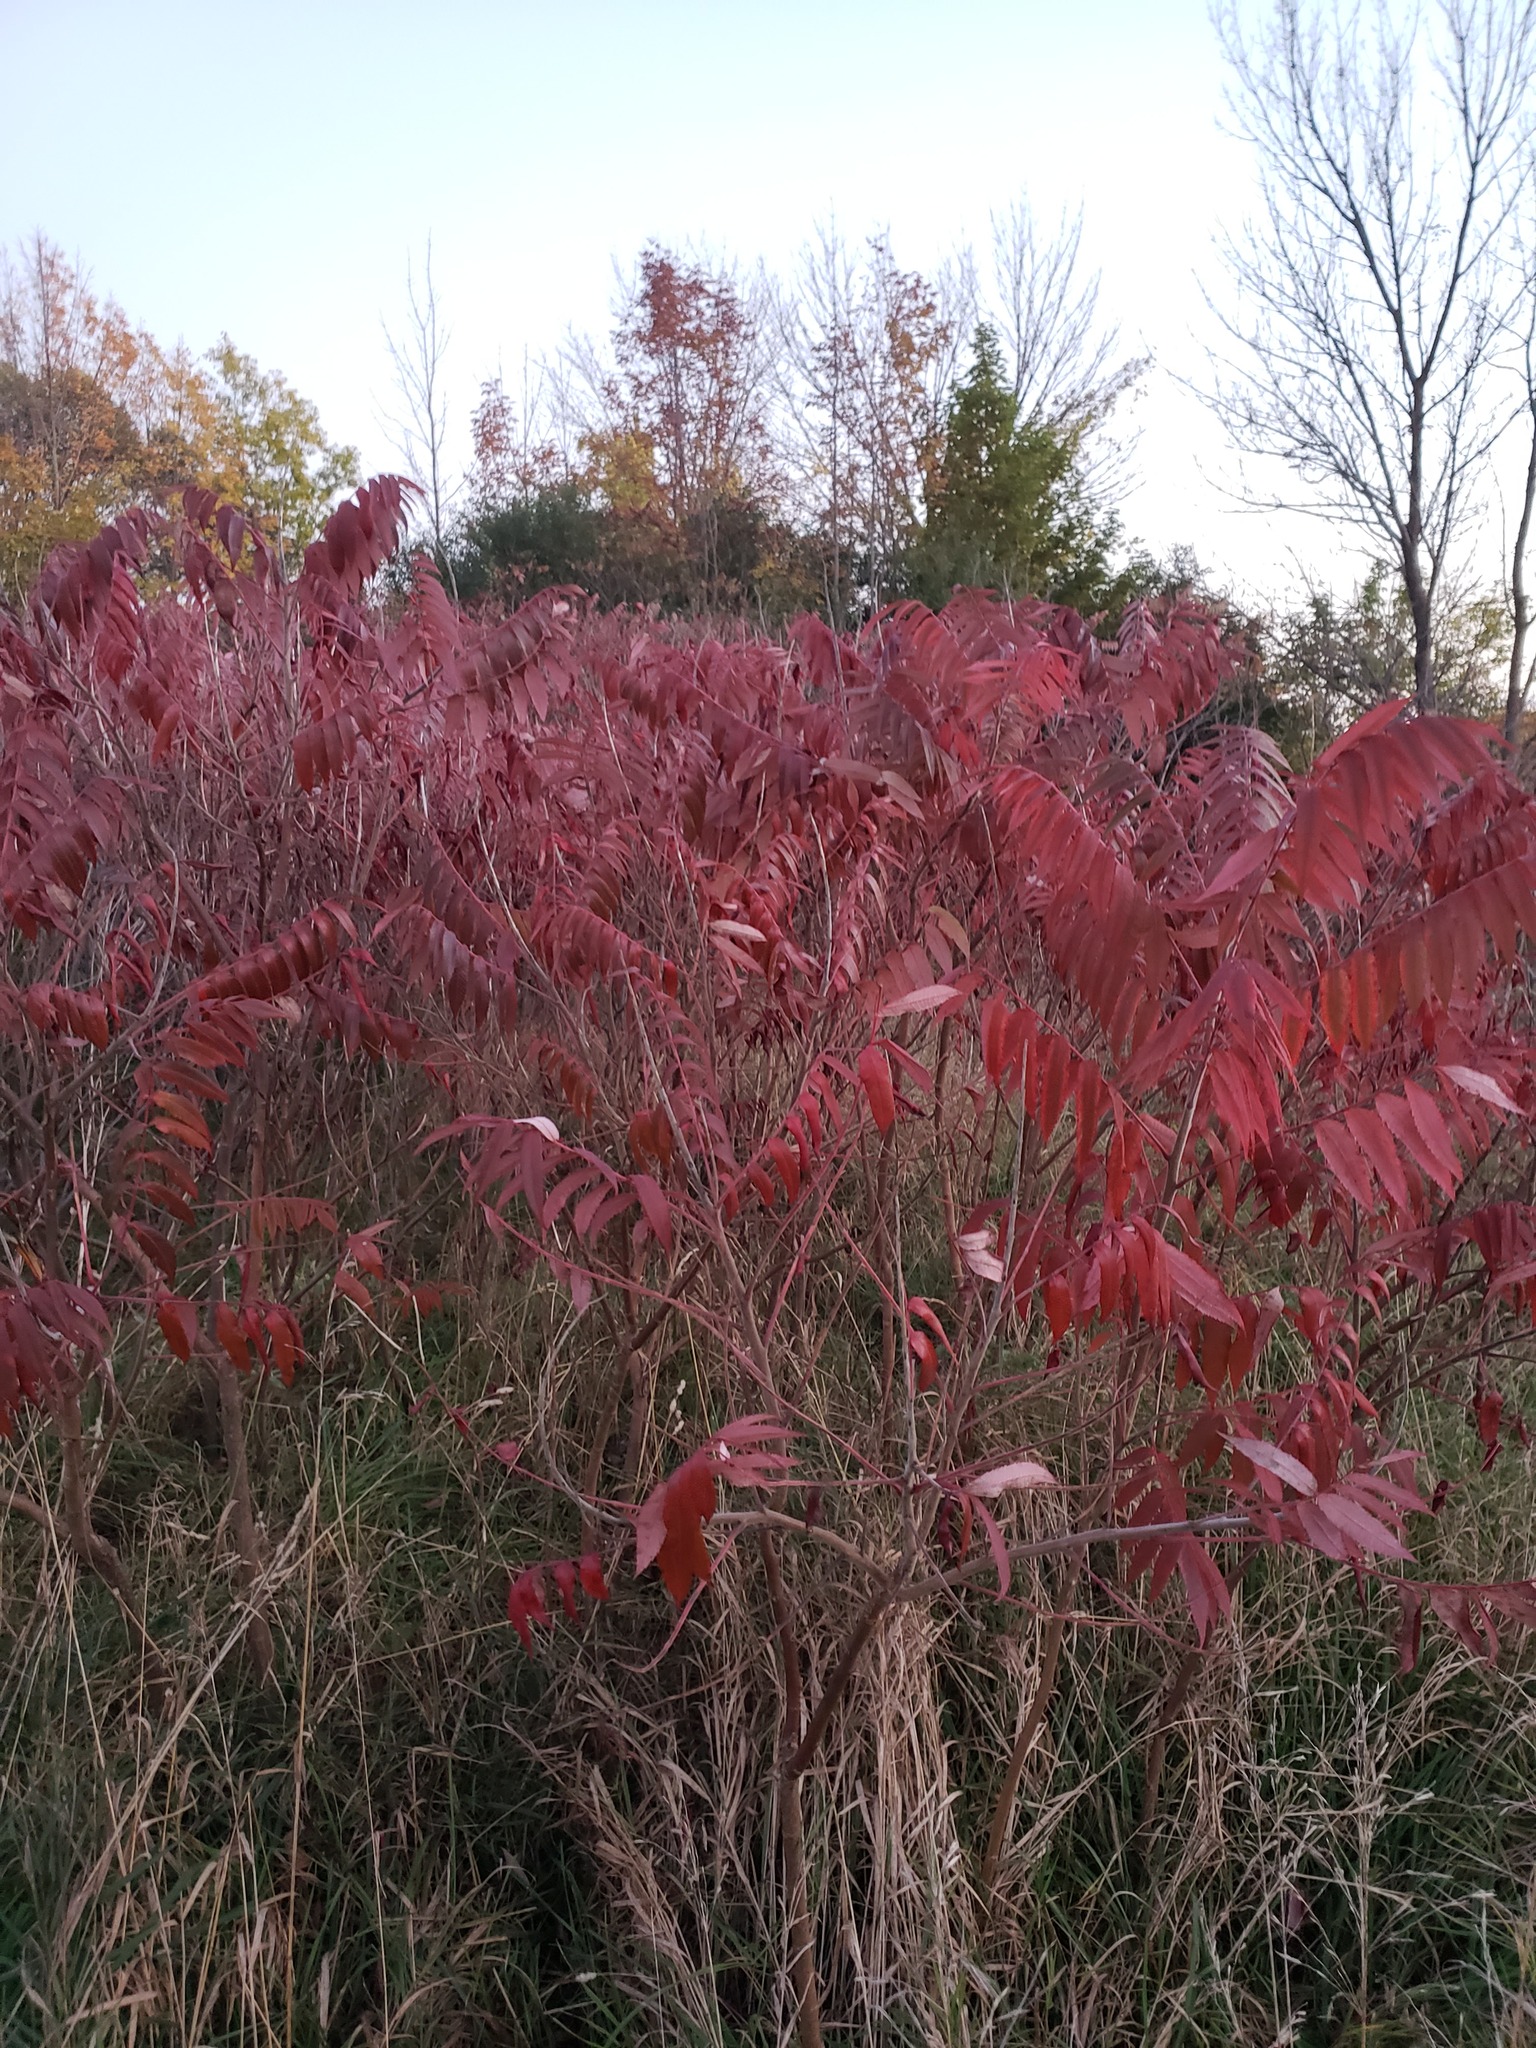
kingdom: Plantae
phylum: Tracheophyta
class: Magnoliopsida
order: Sapindales
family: Anacardiaceae
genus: Rhus
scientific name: Rhus typhina
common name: Staghorn sumac
